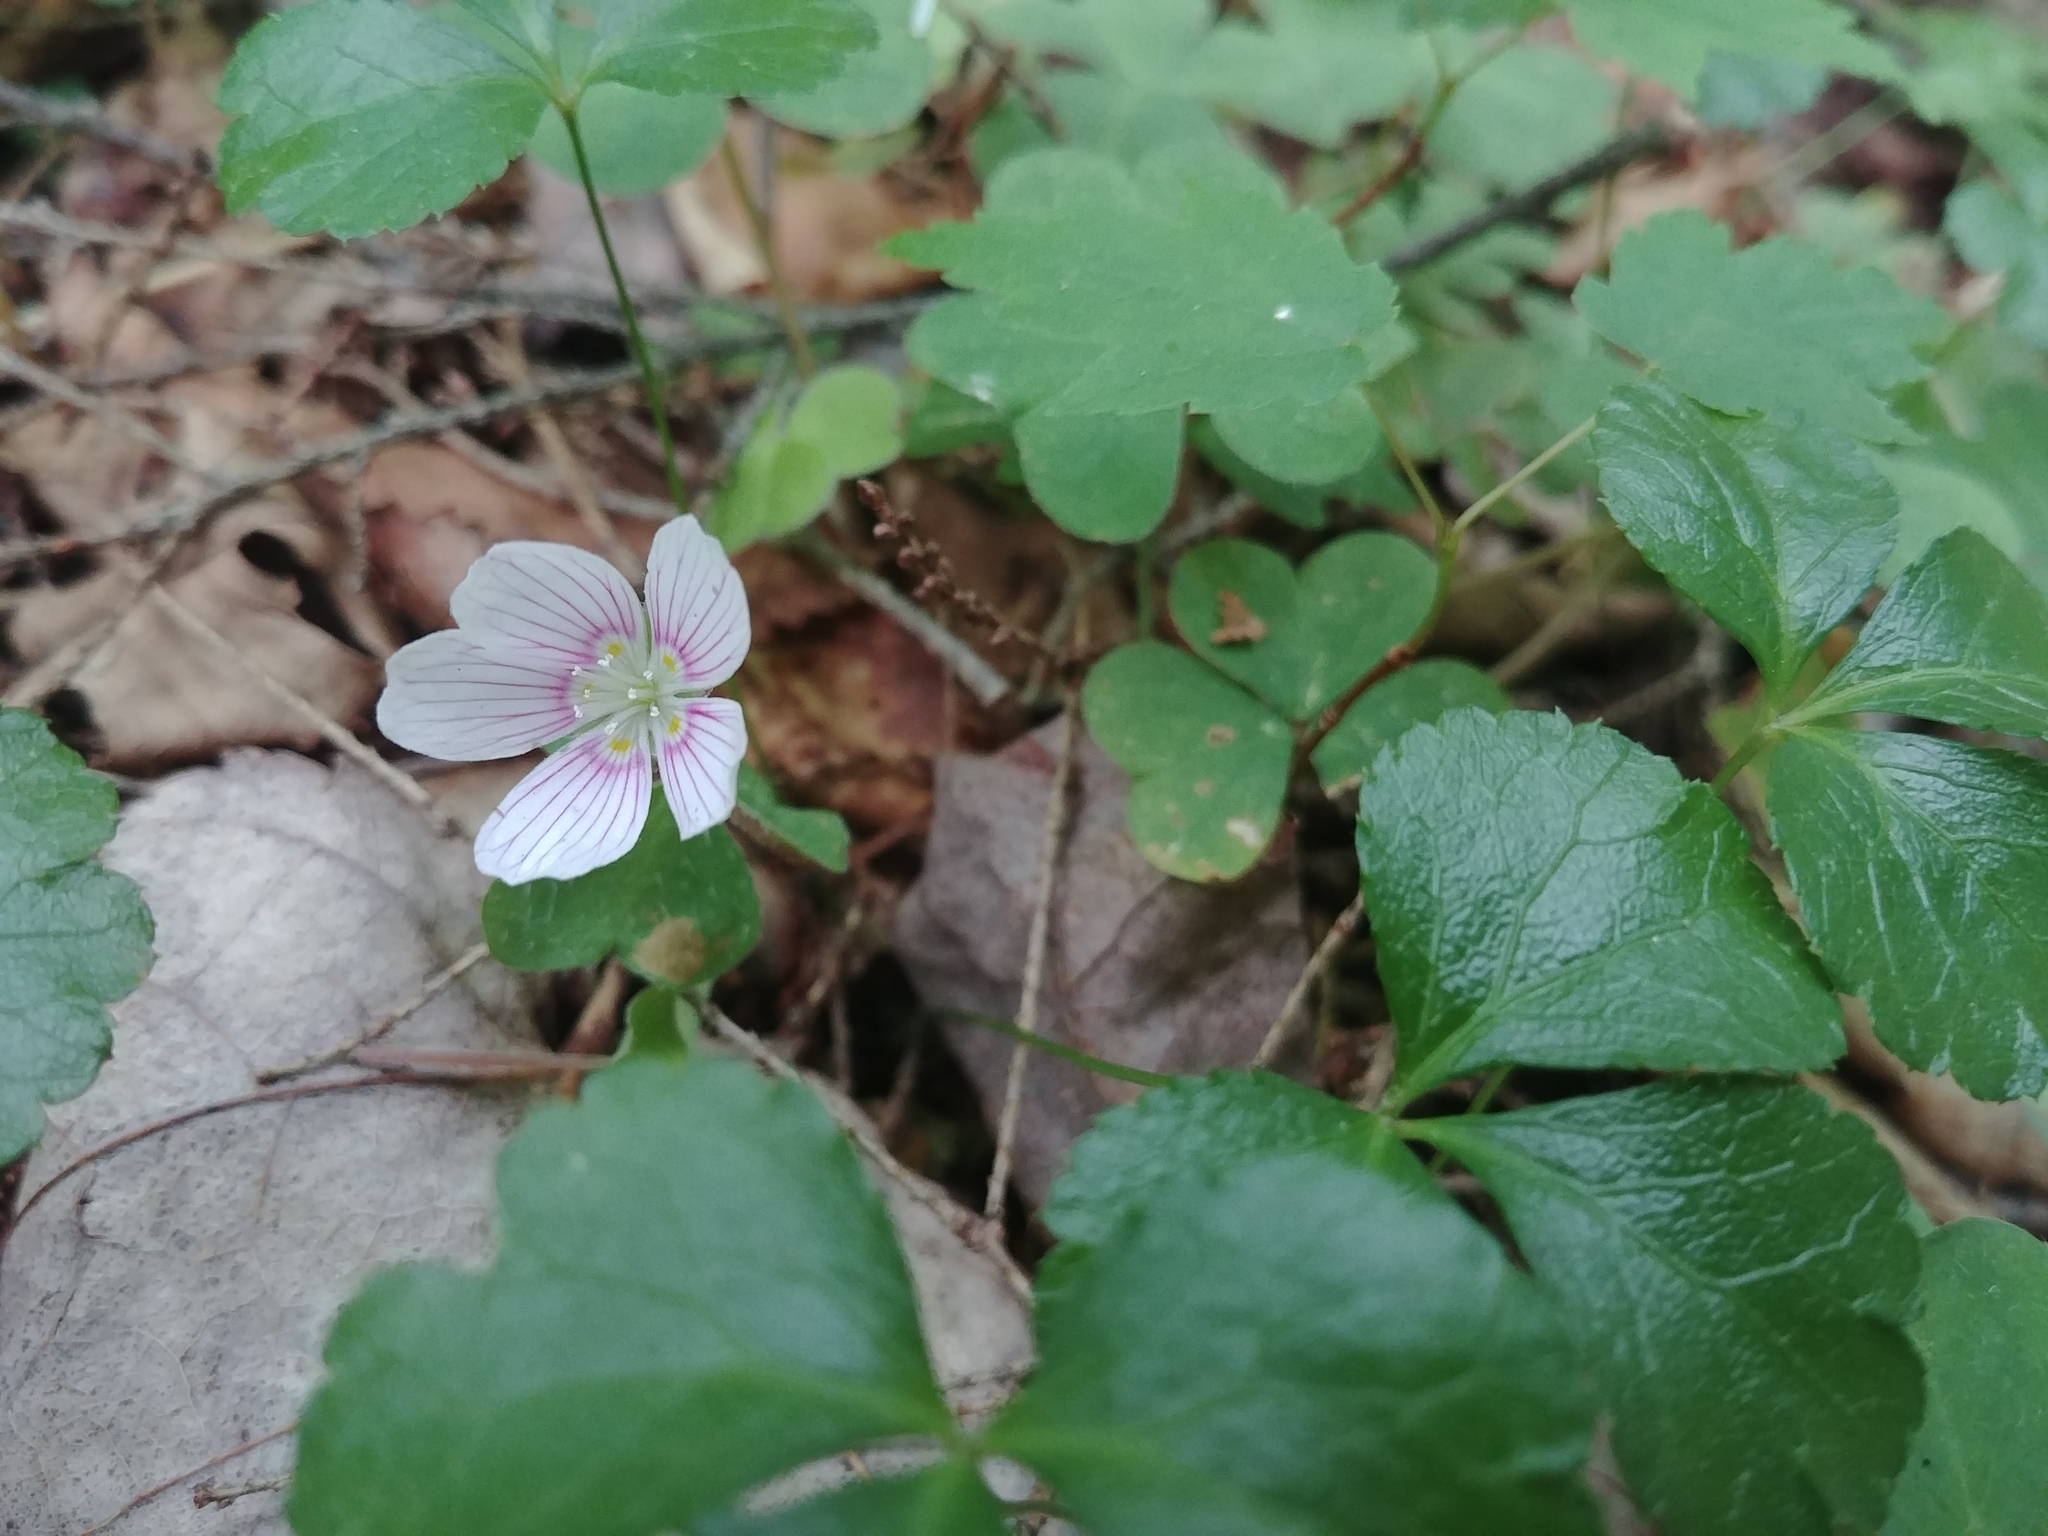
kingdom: Plantae
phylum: Tracheophyta
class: Magnoliopsida
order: Oxalidales
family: Oxalidaceae
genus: Oxalis
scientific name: Oxalis montana
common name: American wood-sorrel
